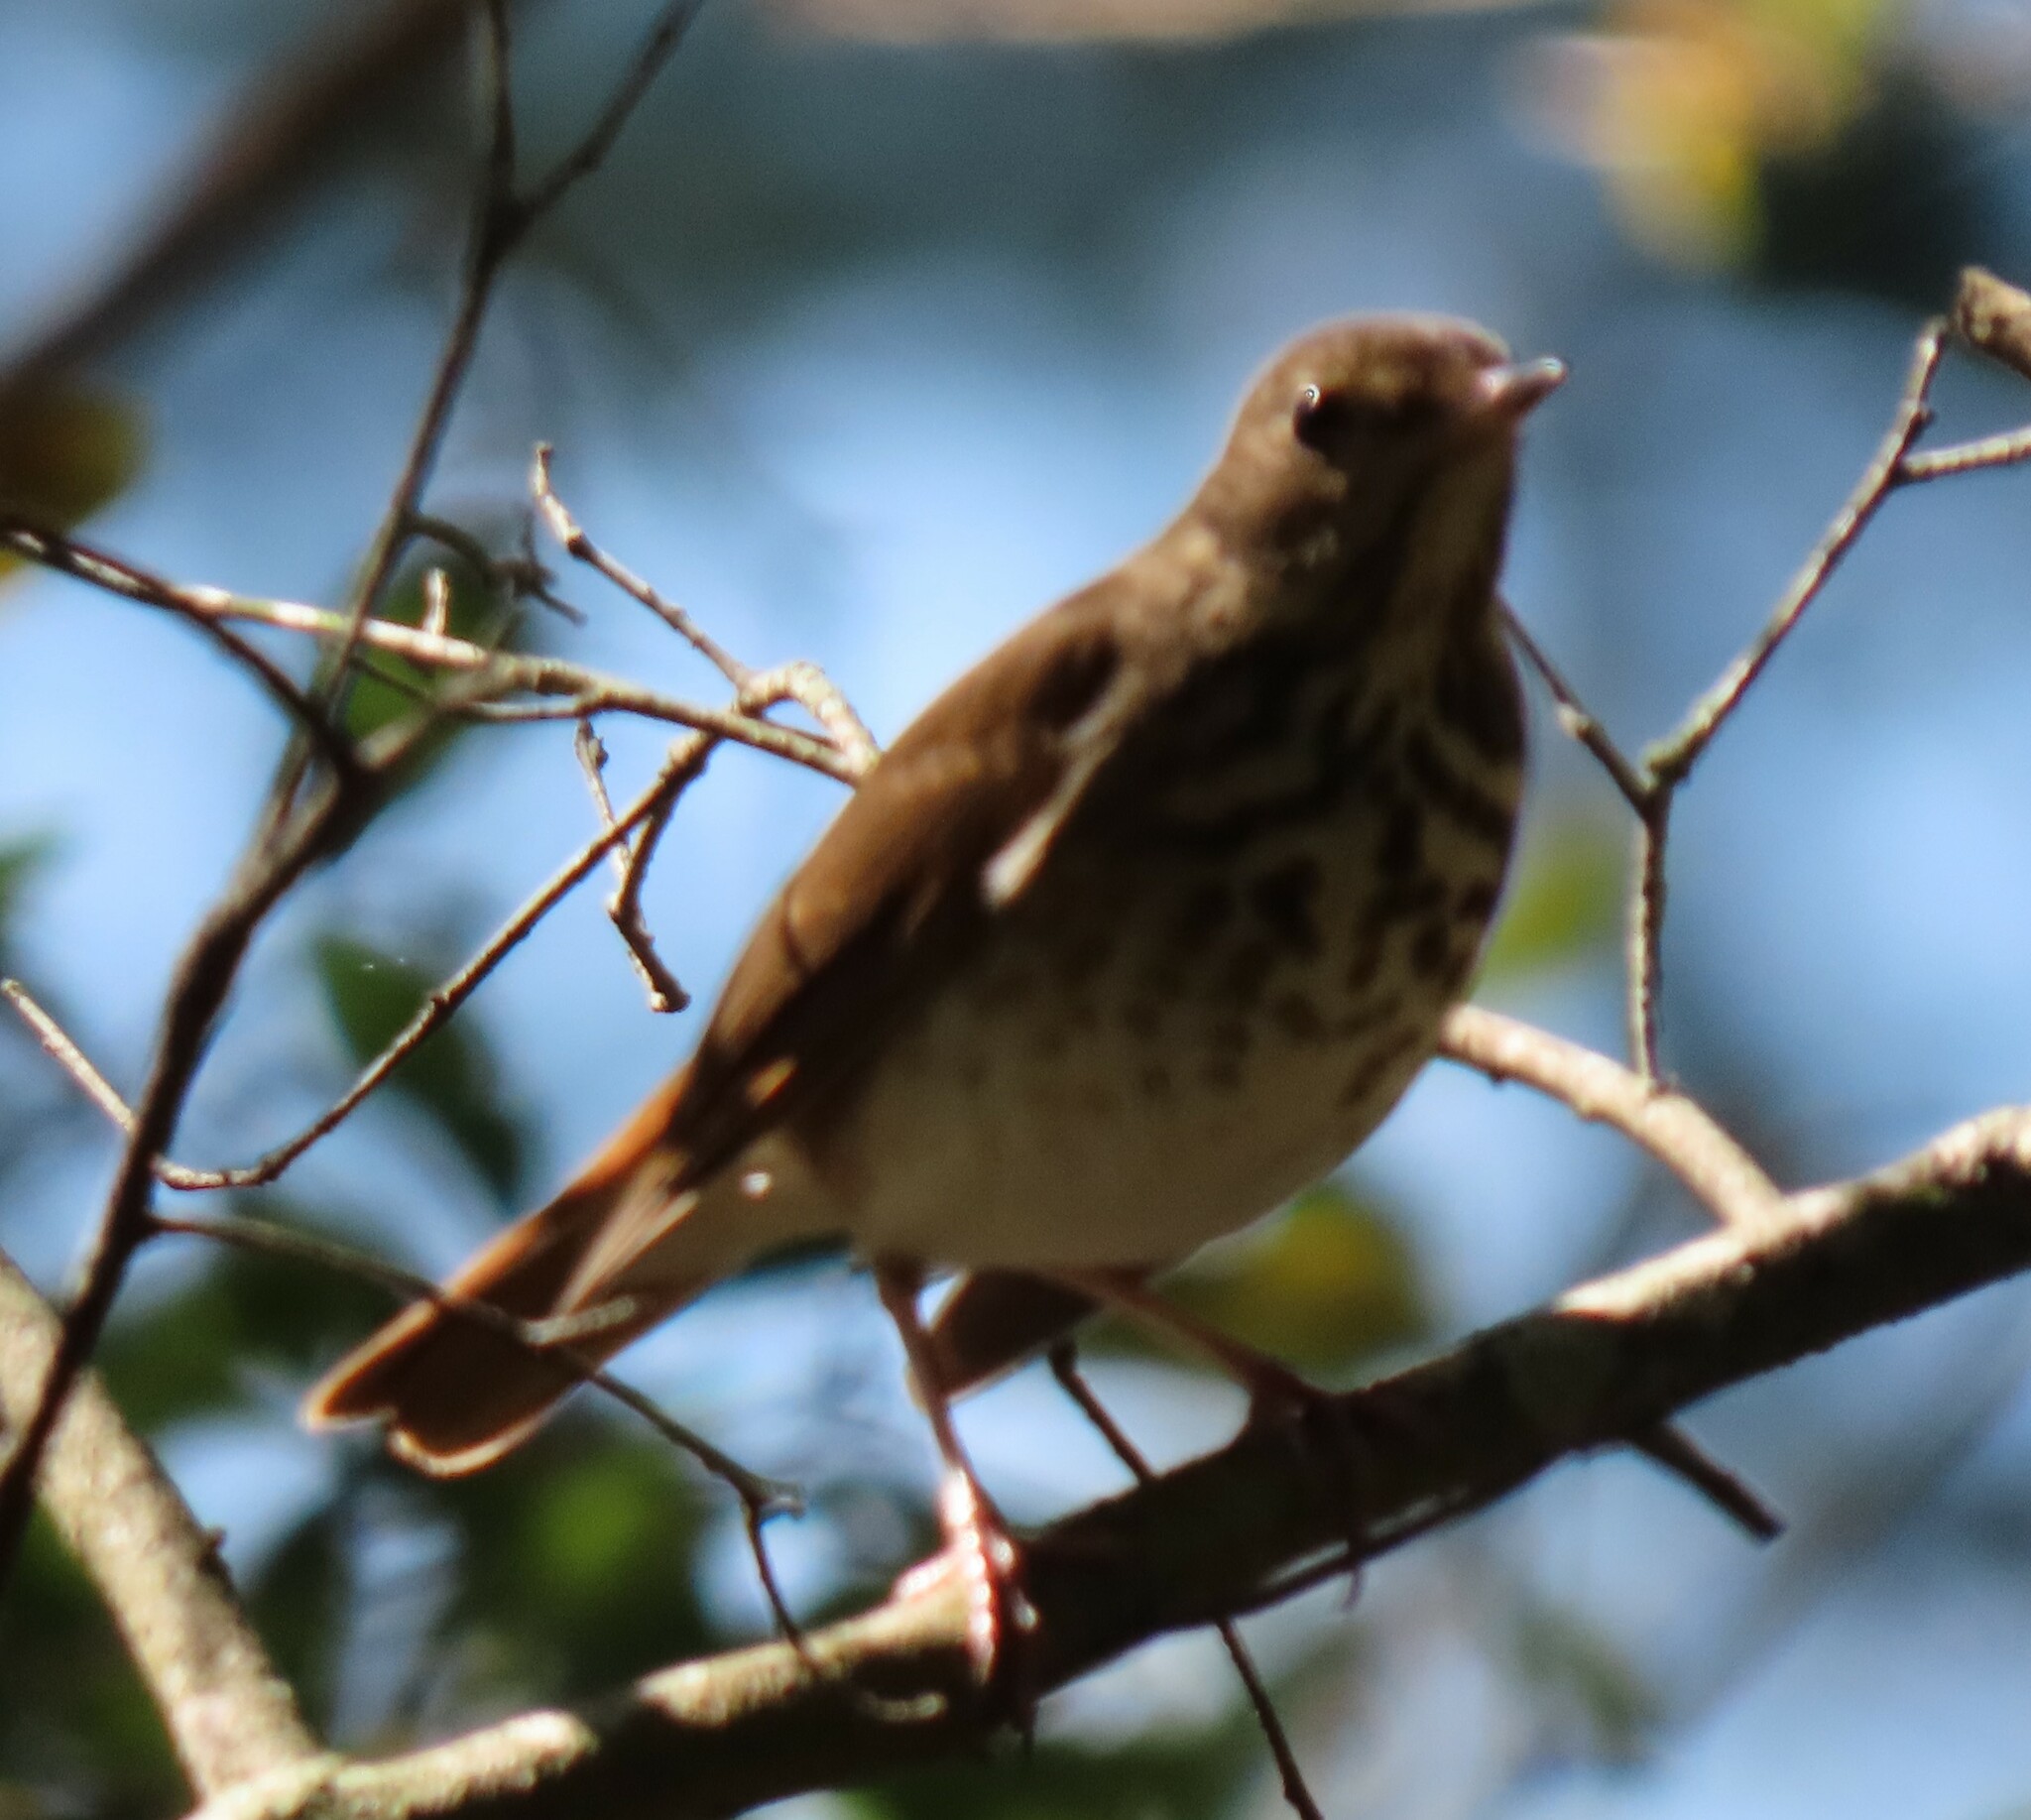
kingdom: Animalia
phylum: Chordata
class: Aves
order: Passeriformes
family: Turdidae
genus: Catharus
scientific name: Catharus guttatus
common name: Hermit thrush
